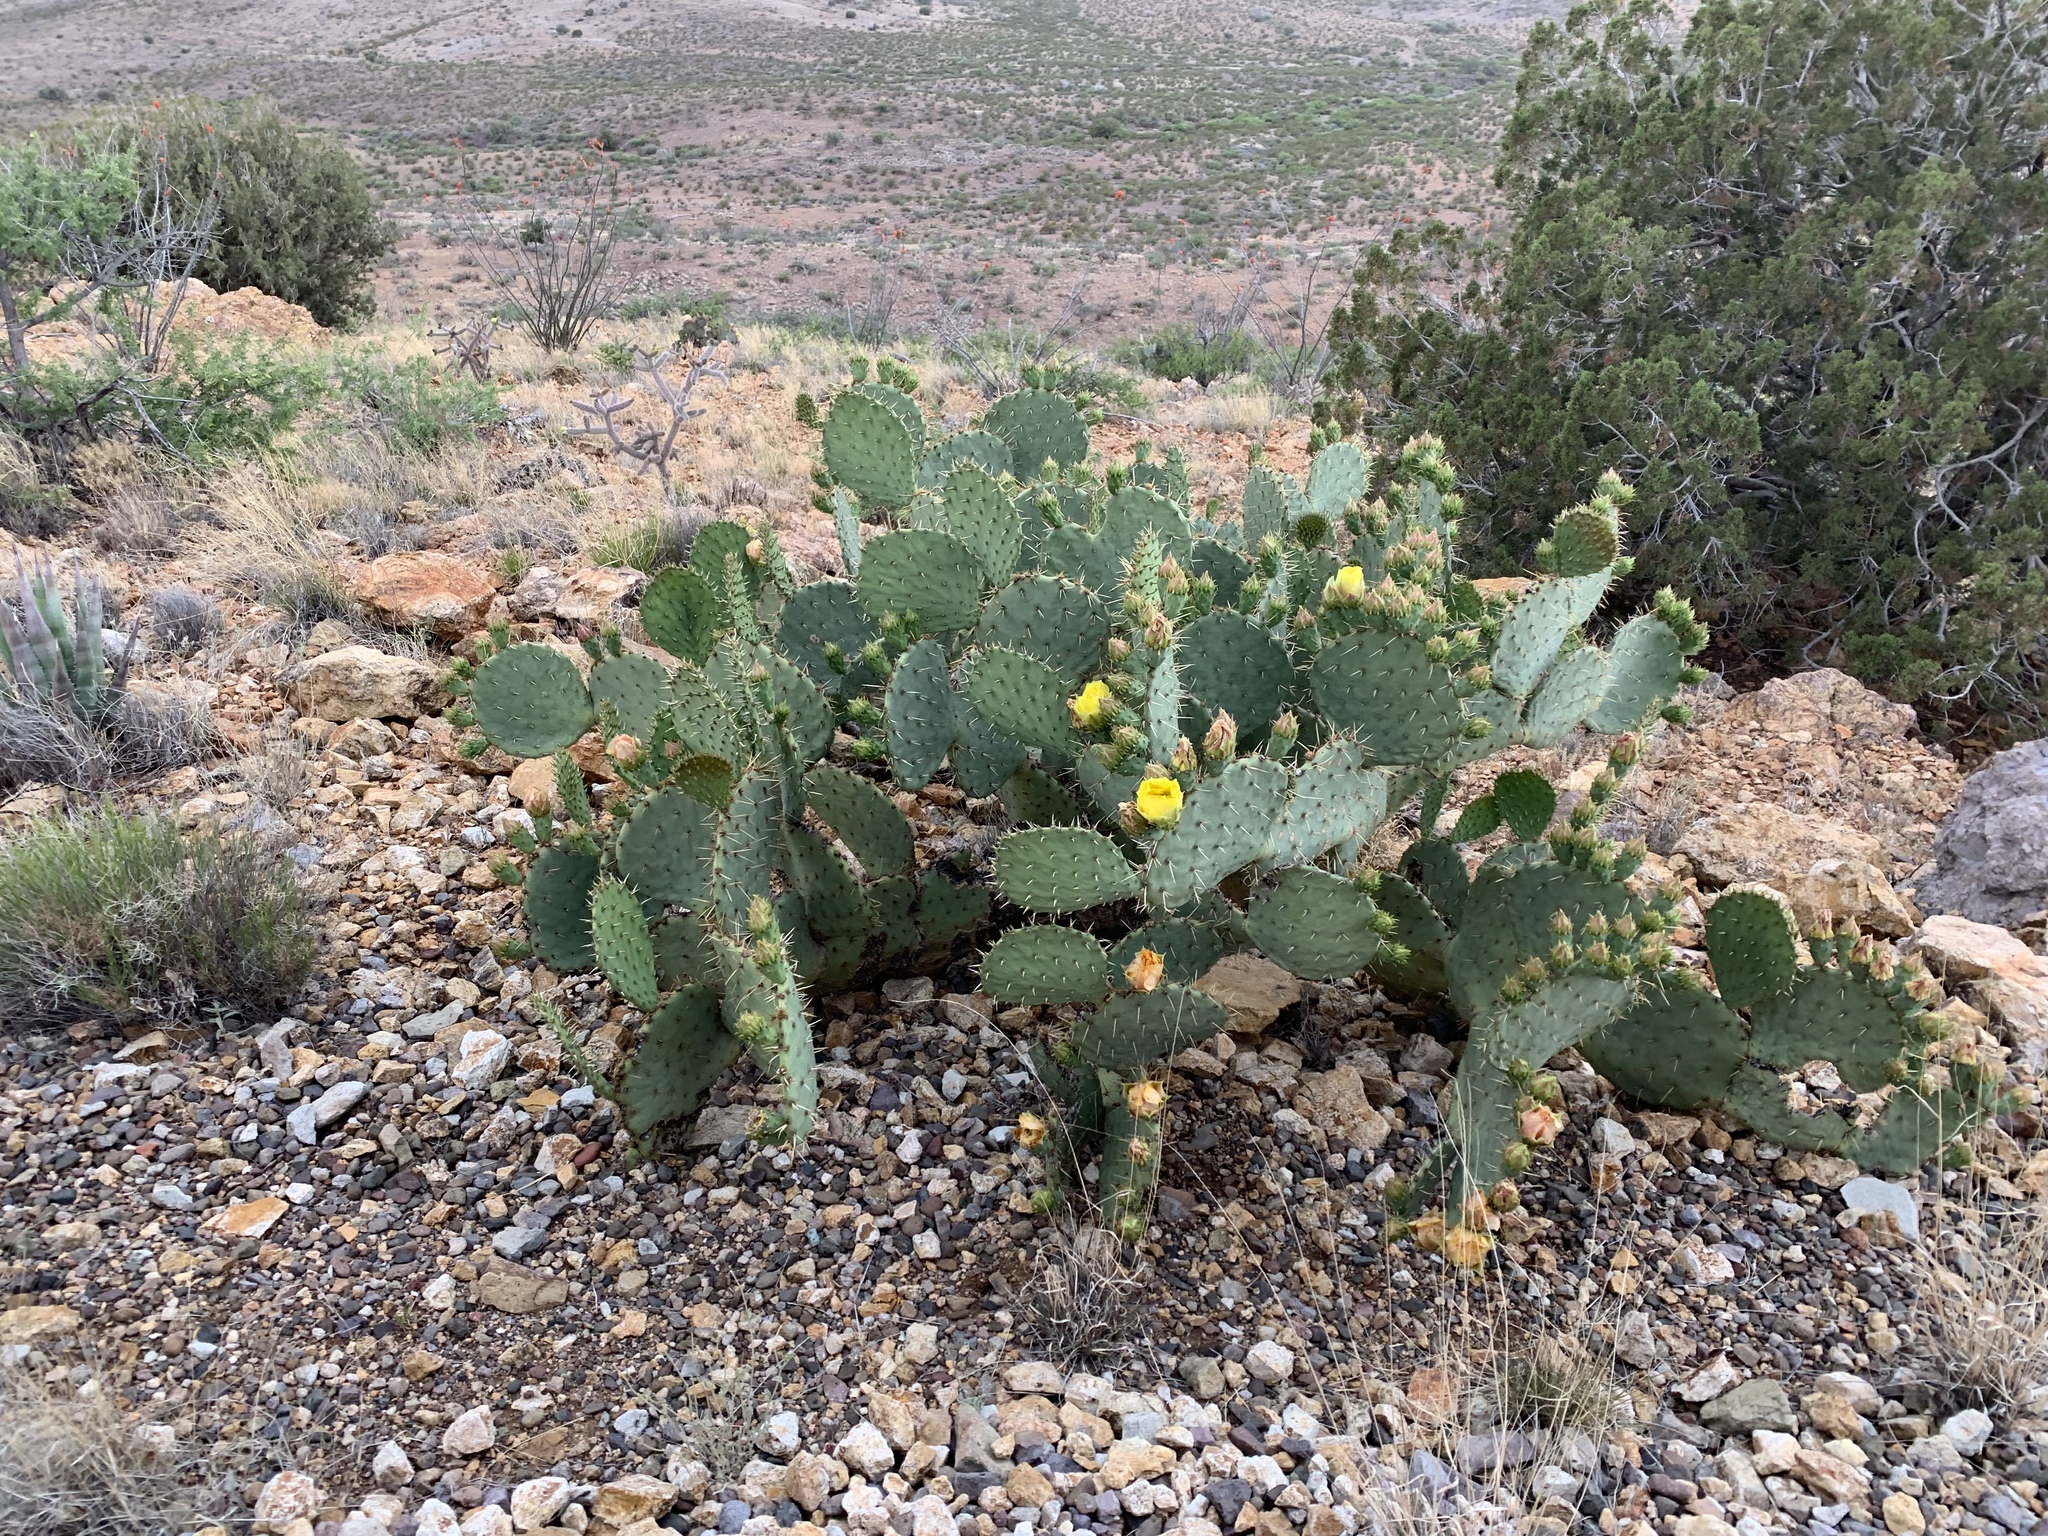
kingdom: Plantae
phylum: Tracheophyta
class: Magnoliopsida
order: Caryophyllales
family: Cactaceae
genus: Opuntia
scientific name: Opuntia engelmannii
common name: Cactus-apple
